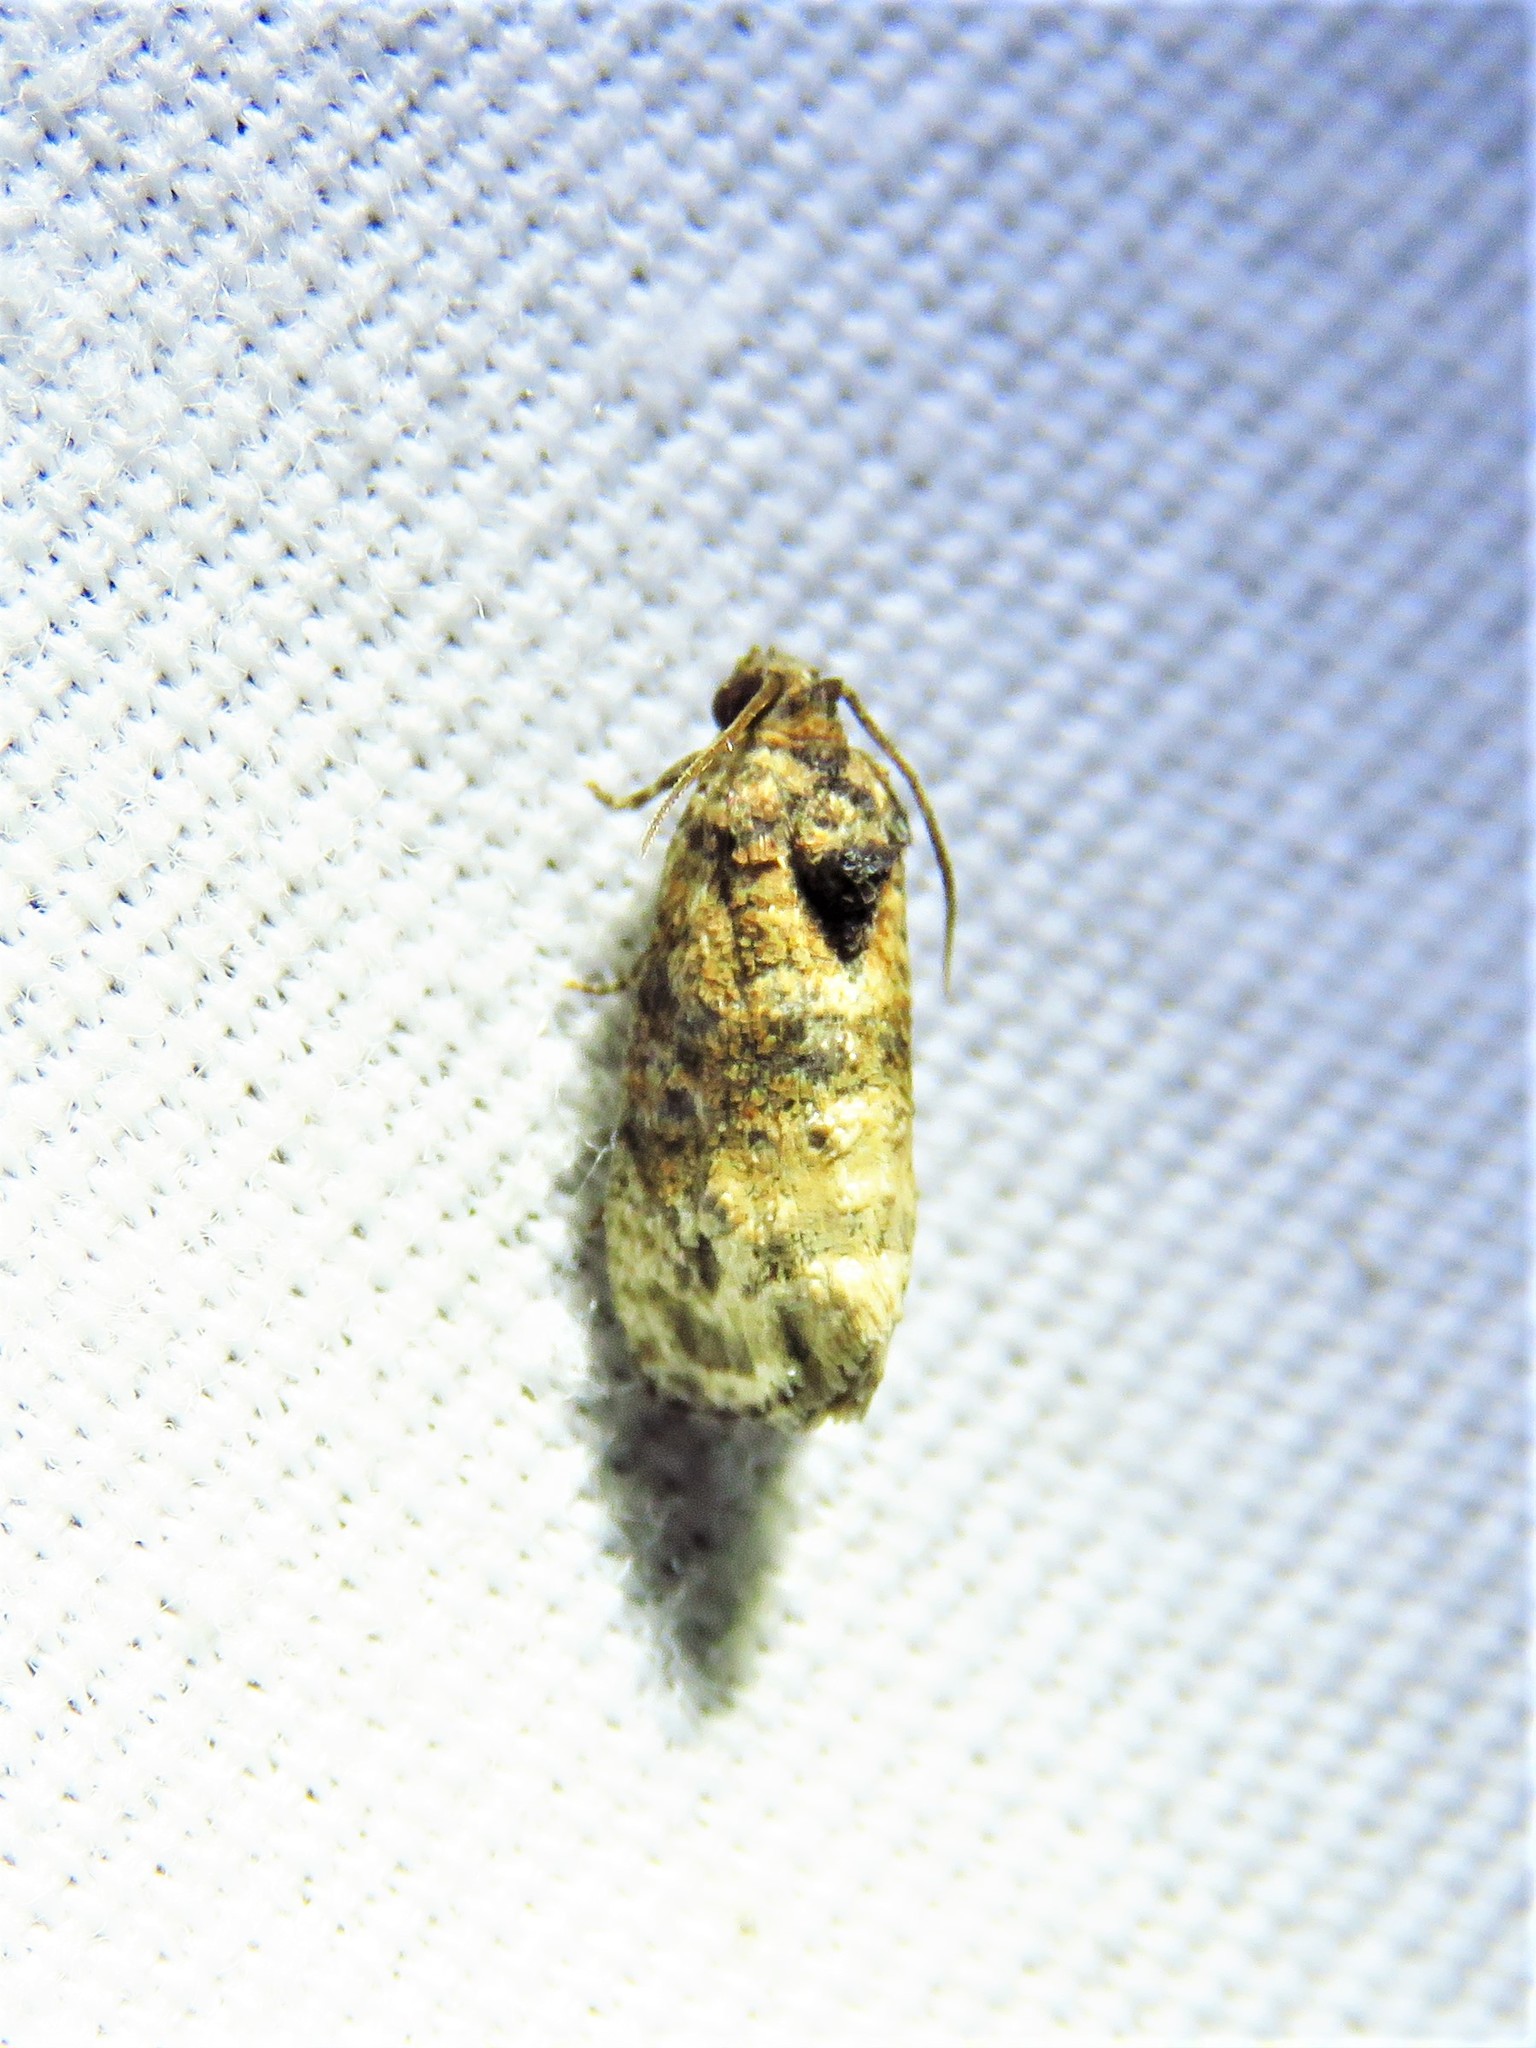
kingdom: Animalia
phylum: Arthropoda
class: Insecta
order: Lepidoptera
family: Tortricidae
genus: Ecdytolopha
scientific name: Ecdytolopha mana
